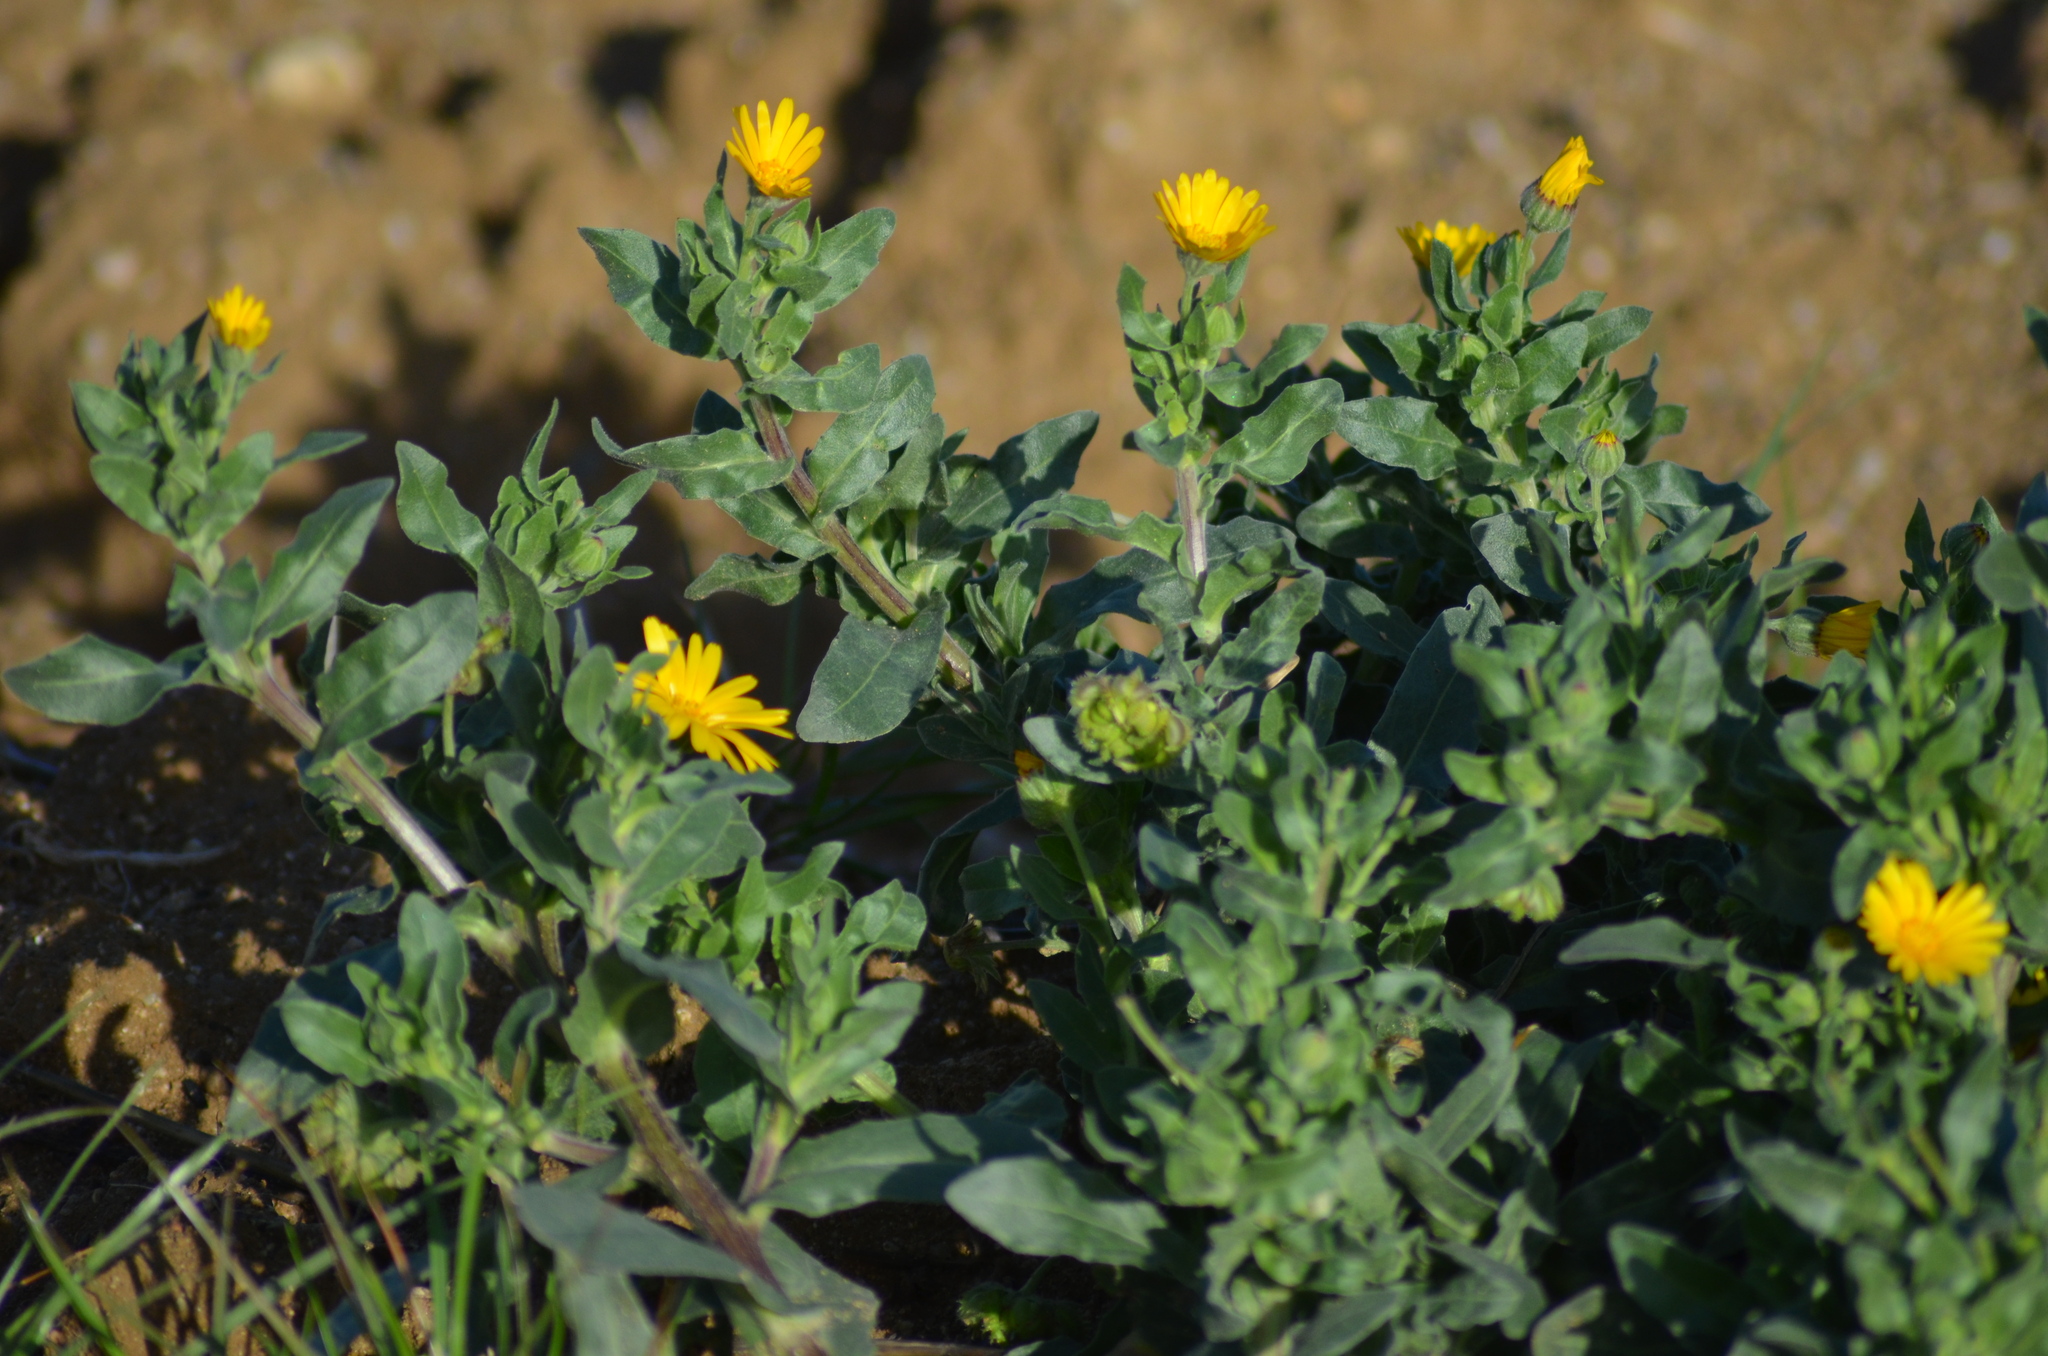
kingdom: Plantae
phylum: Tracheophyta
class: Magnoliopsida
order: Asterales
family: Asteraceae
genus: Calendula
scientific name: Calendula arvensis
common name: Field marigold
